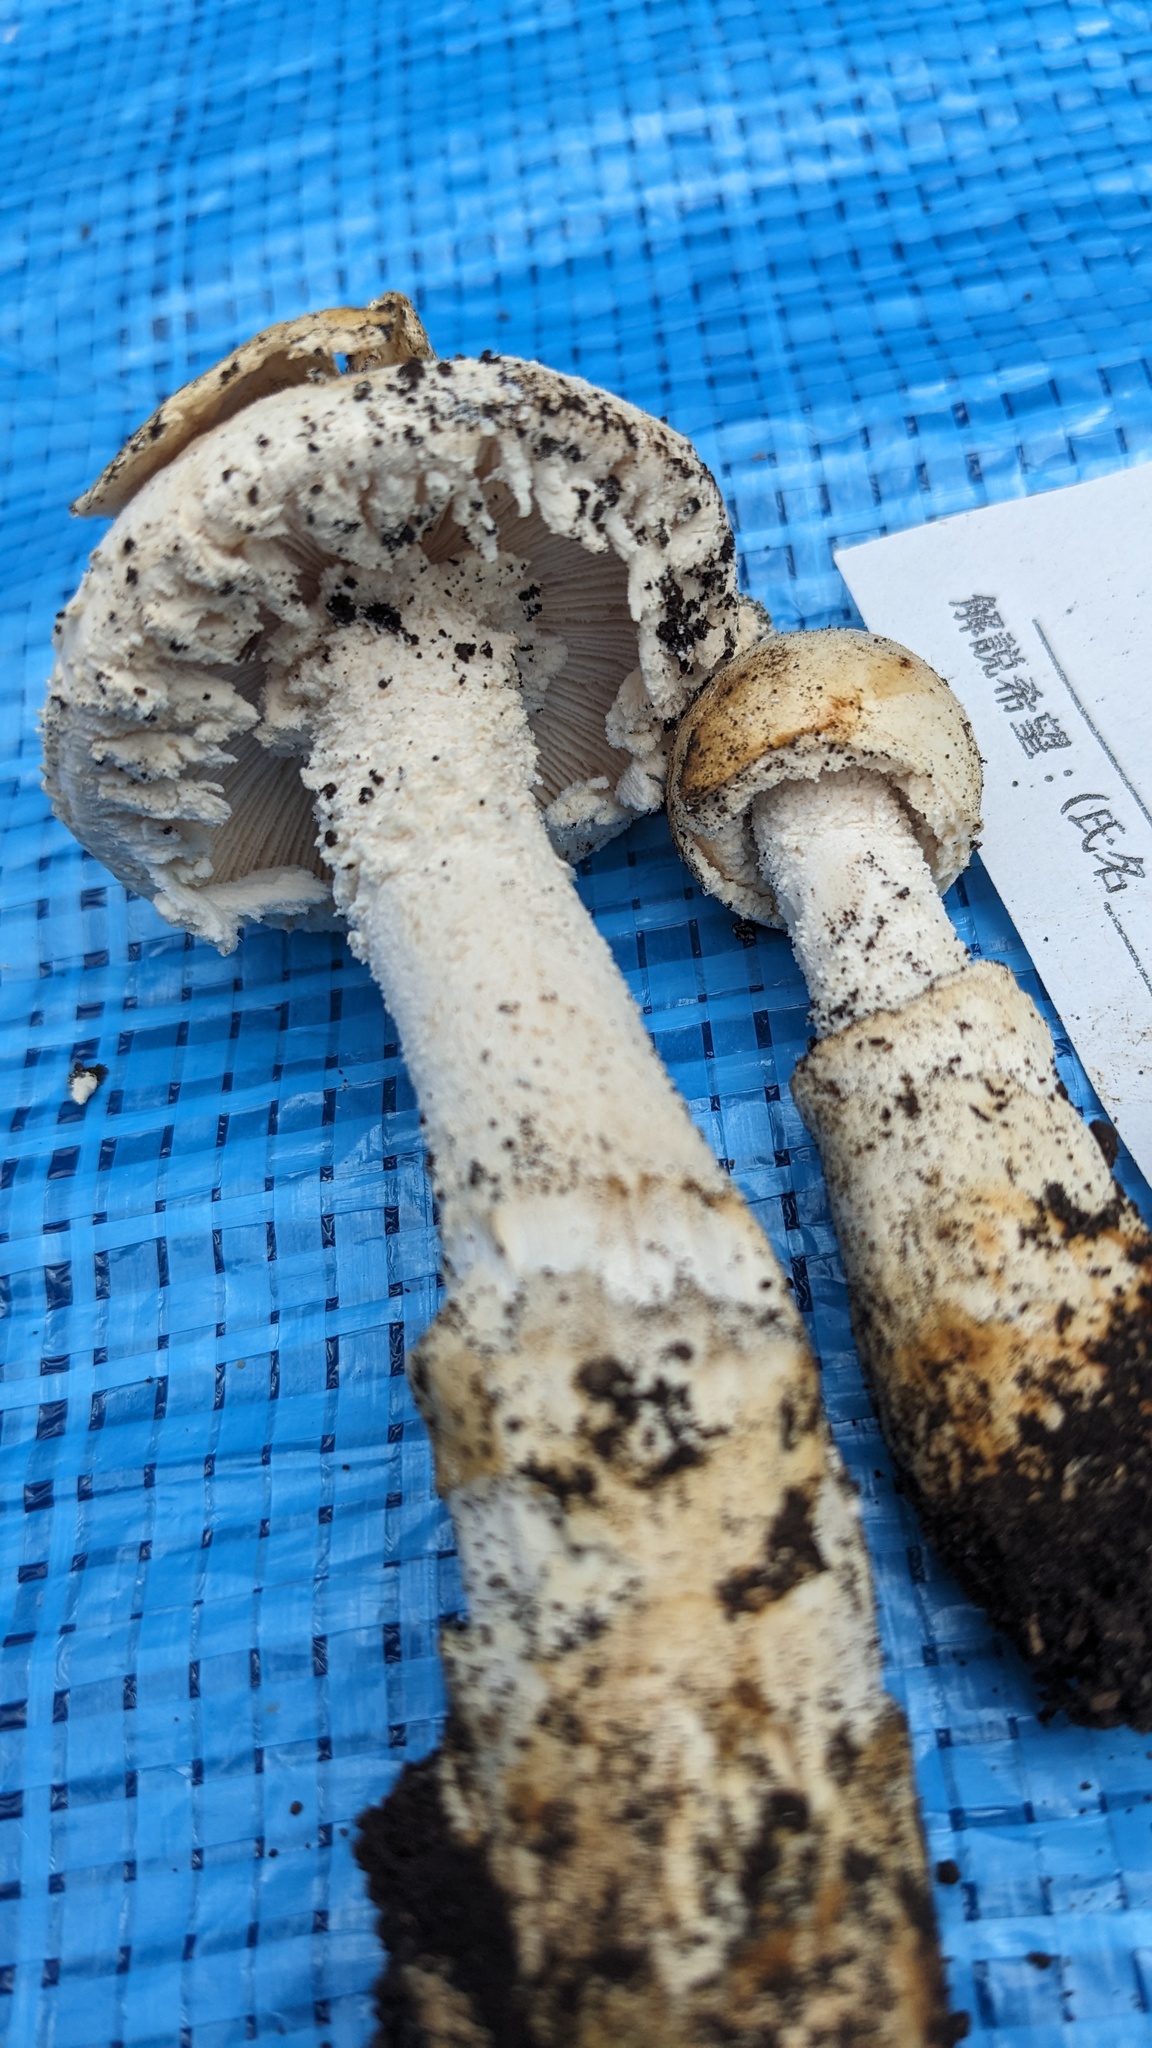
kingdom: Fungi
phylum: Basidiomycota
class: Agaricomycetes
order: Agaricales
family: Amanitaceae
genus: Amanita
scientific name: Amanita neo-ovoidea
